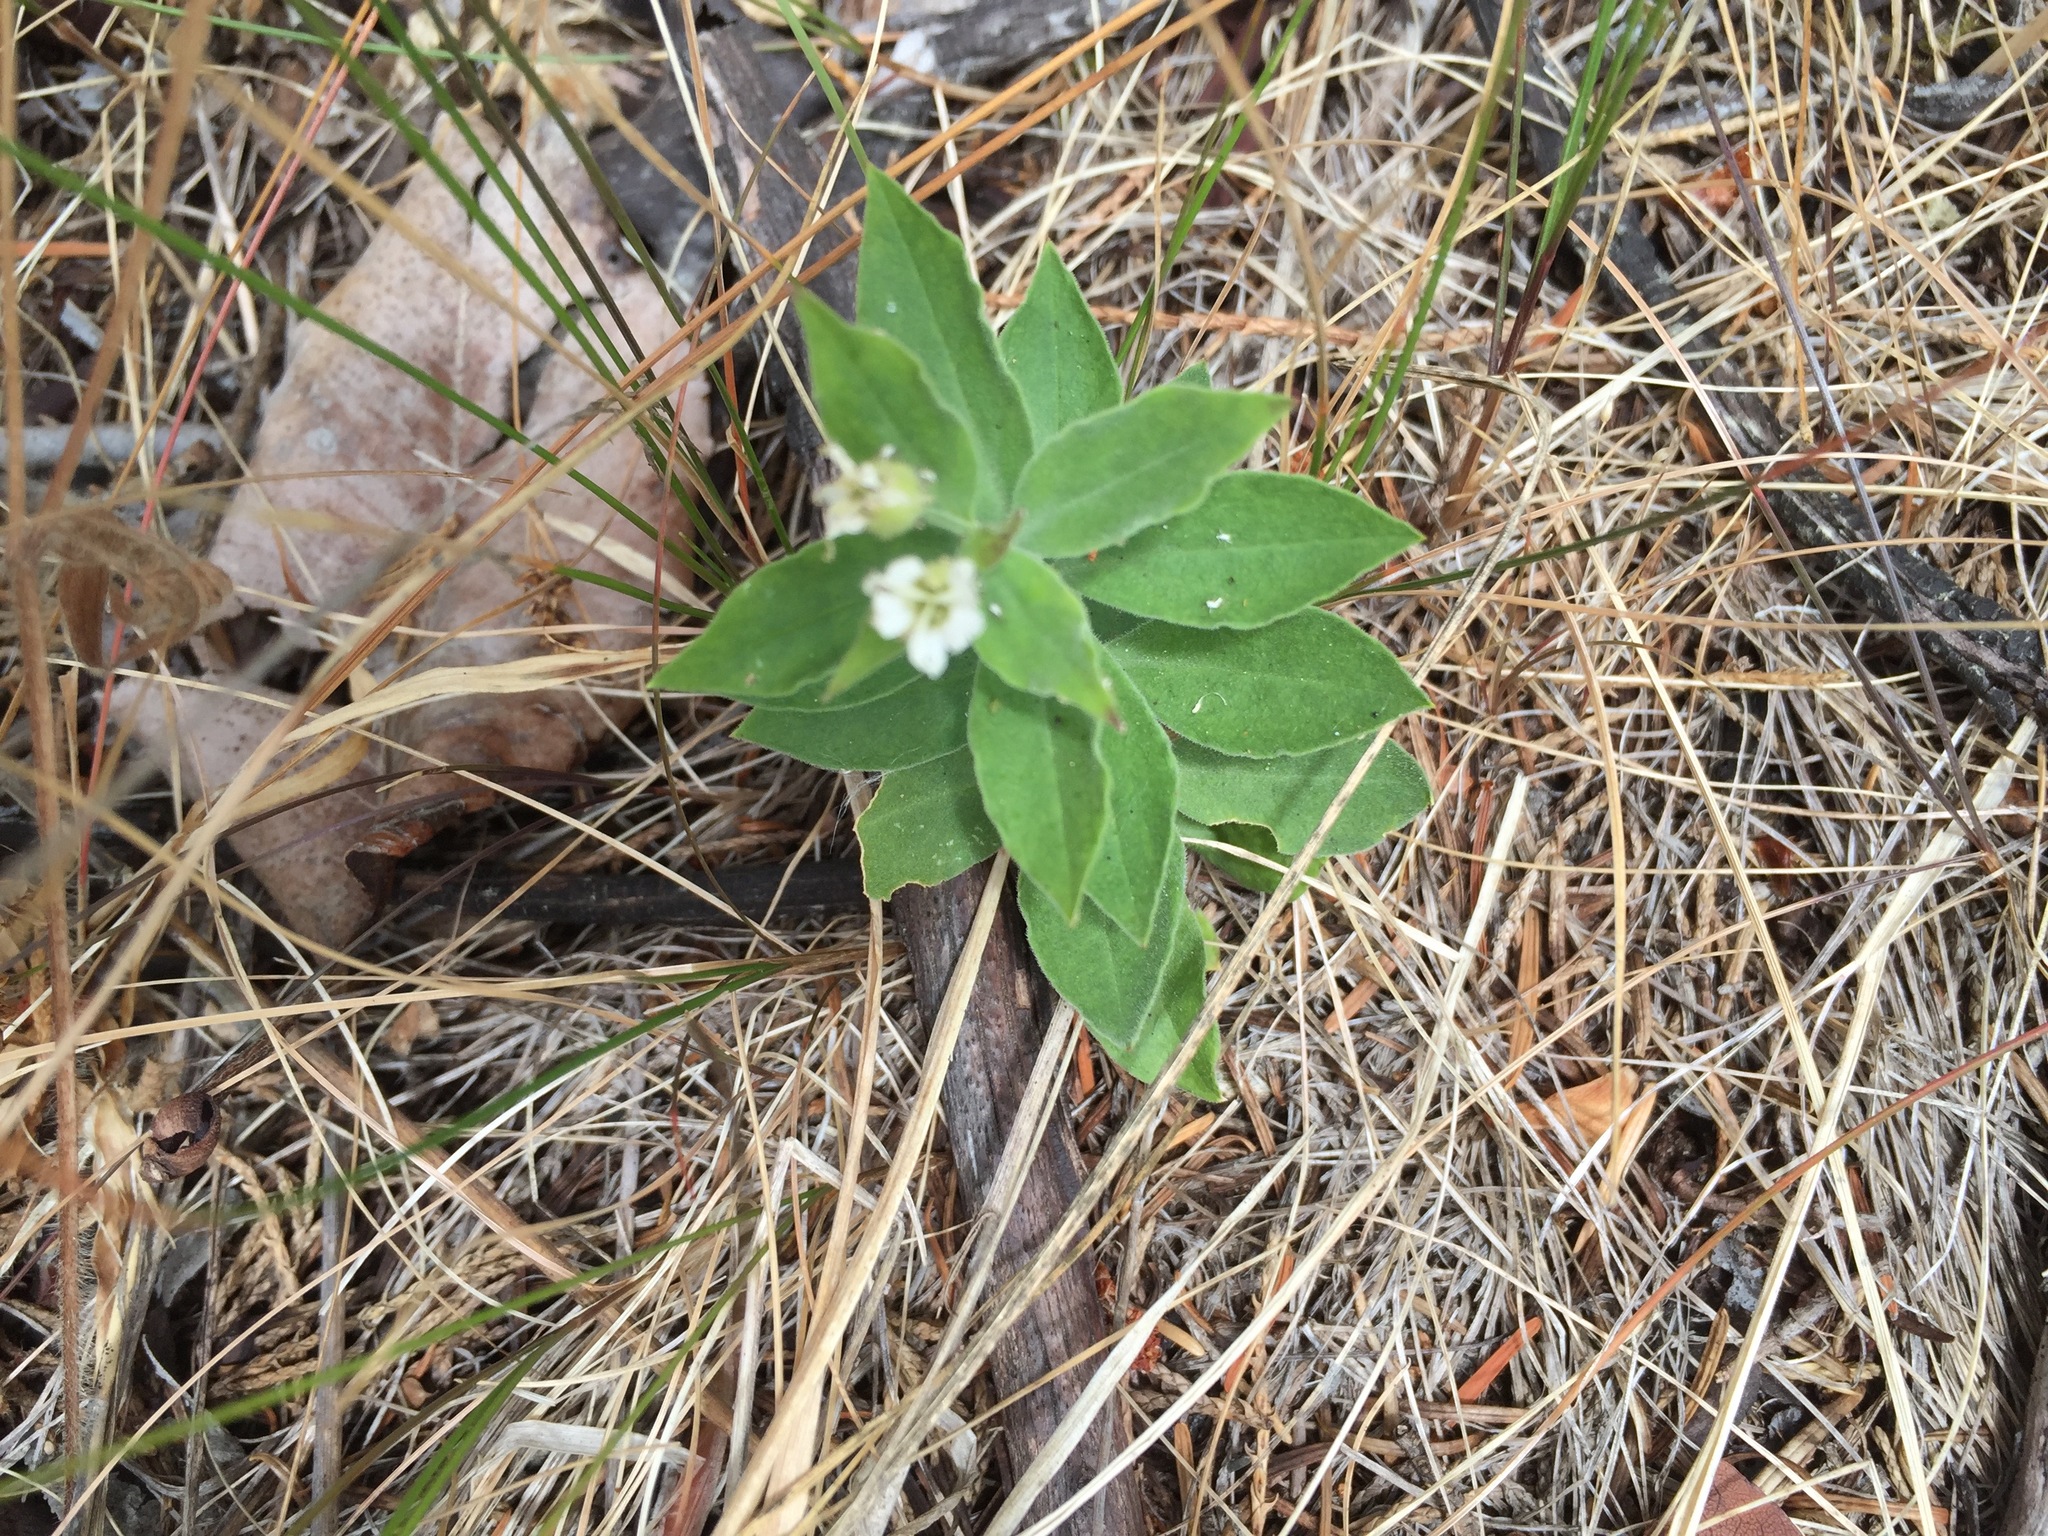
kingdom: Plantae
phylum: Tracheophyta
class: Magnoliopsida
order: Caryophyllales
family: Caryophyllaceae
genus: Silene
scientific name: Silene menziesii
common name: Menzies's catchfly
